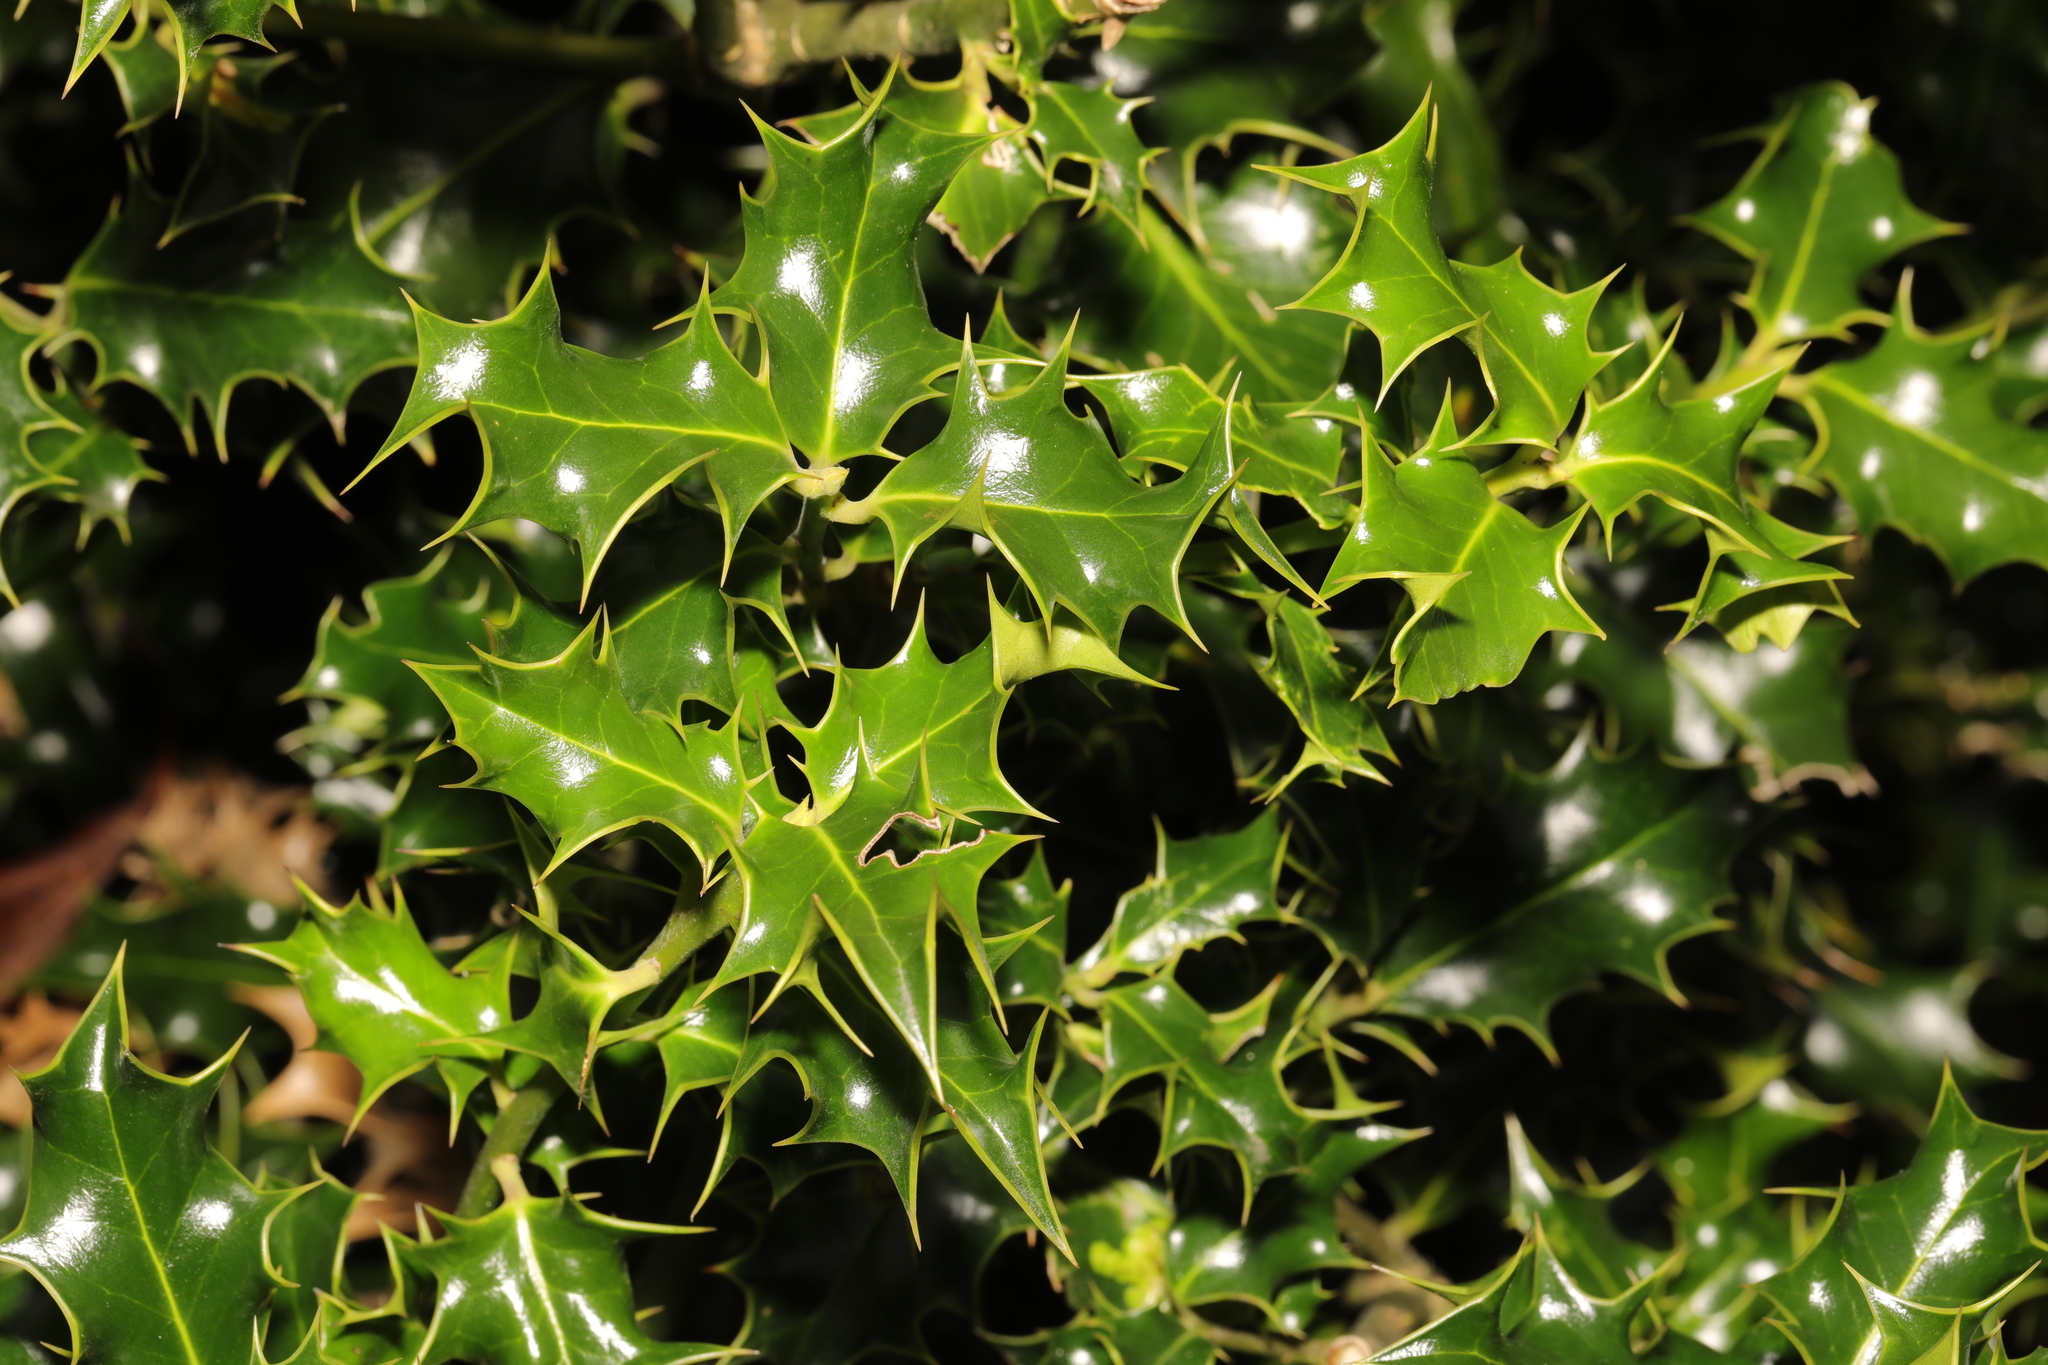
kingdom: Plantae
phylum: Tracheophyta
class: Magnoliopsida
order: Aquifoliales
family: Aquifoliaceae
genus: Ilex
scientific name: Ilex aquifolium
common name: English holly
